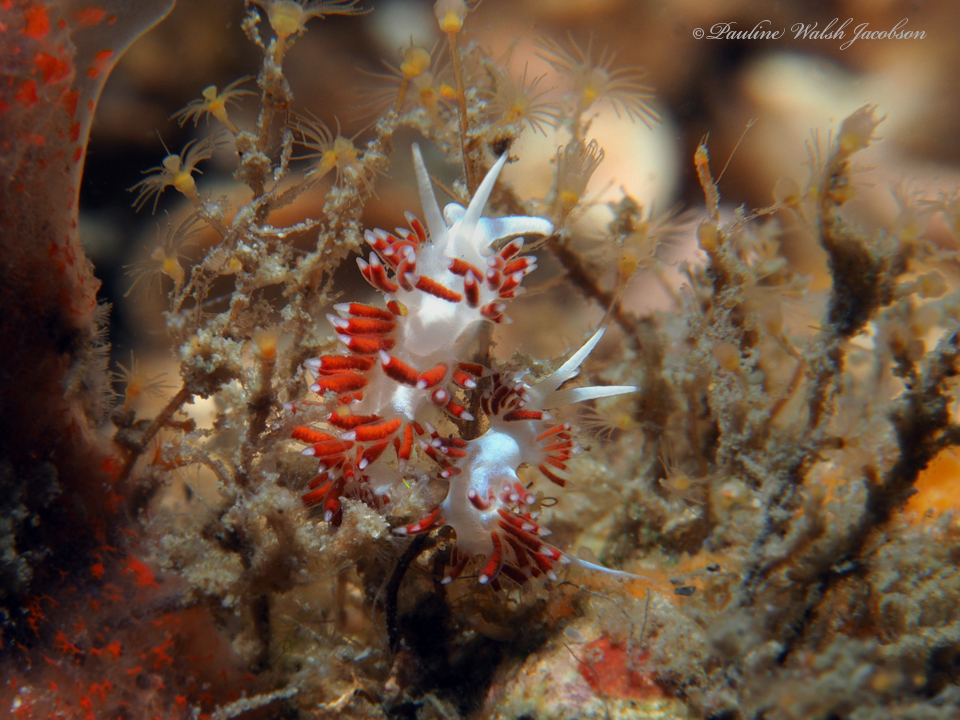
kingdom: Animalia
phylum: Mollusca
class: Gastropoda
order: Nudibranchia
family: Flabellinidae
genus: Flabellina
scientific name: Flabellina dushia
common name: Dushia flabellina
